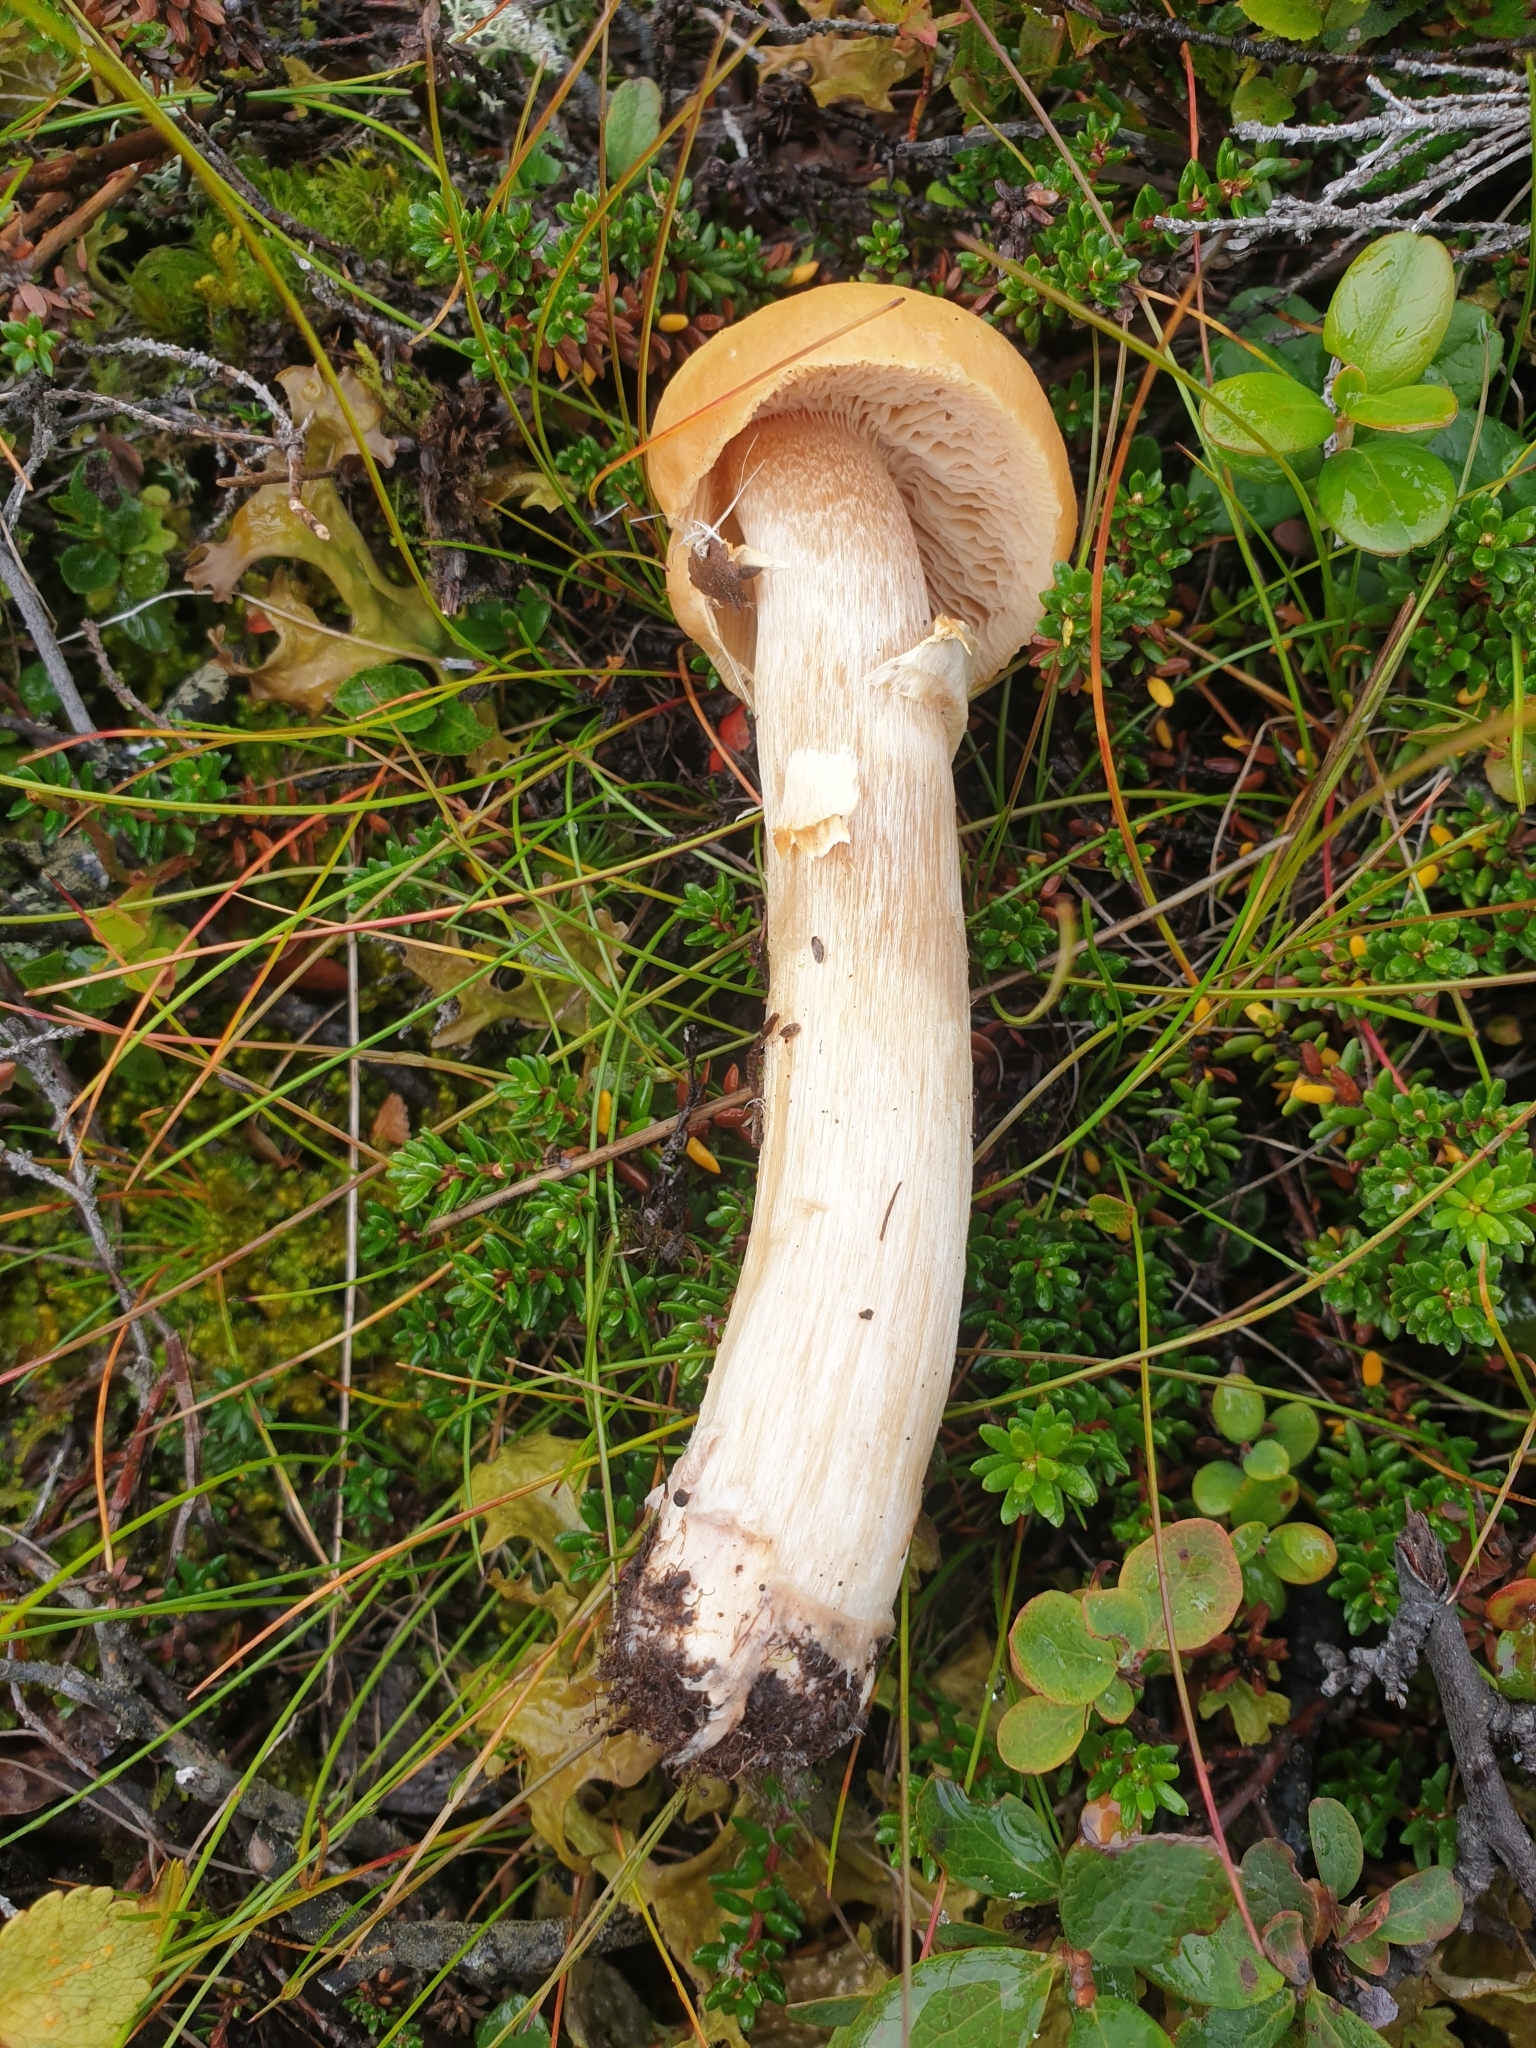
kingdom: Fungi
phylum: Basidiomycota
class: Agaricomycetes
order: Agaricales
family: Cortinariaceae
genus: Cortinarius
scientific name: Cortinarius caperatus
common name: The gypsy
